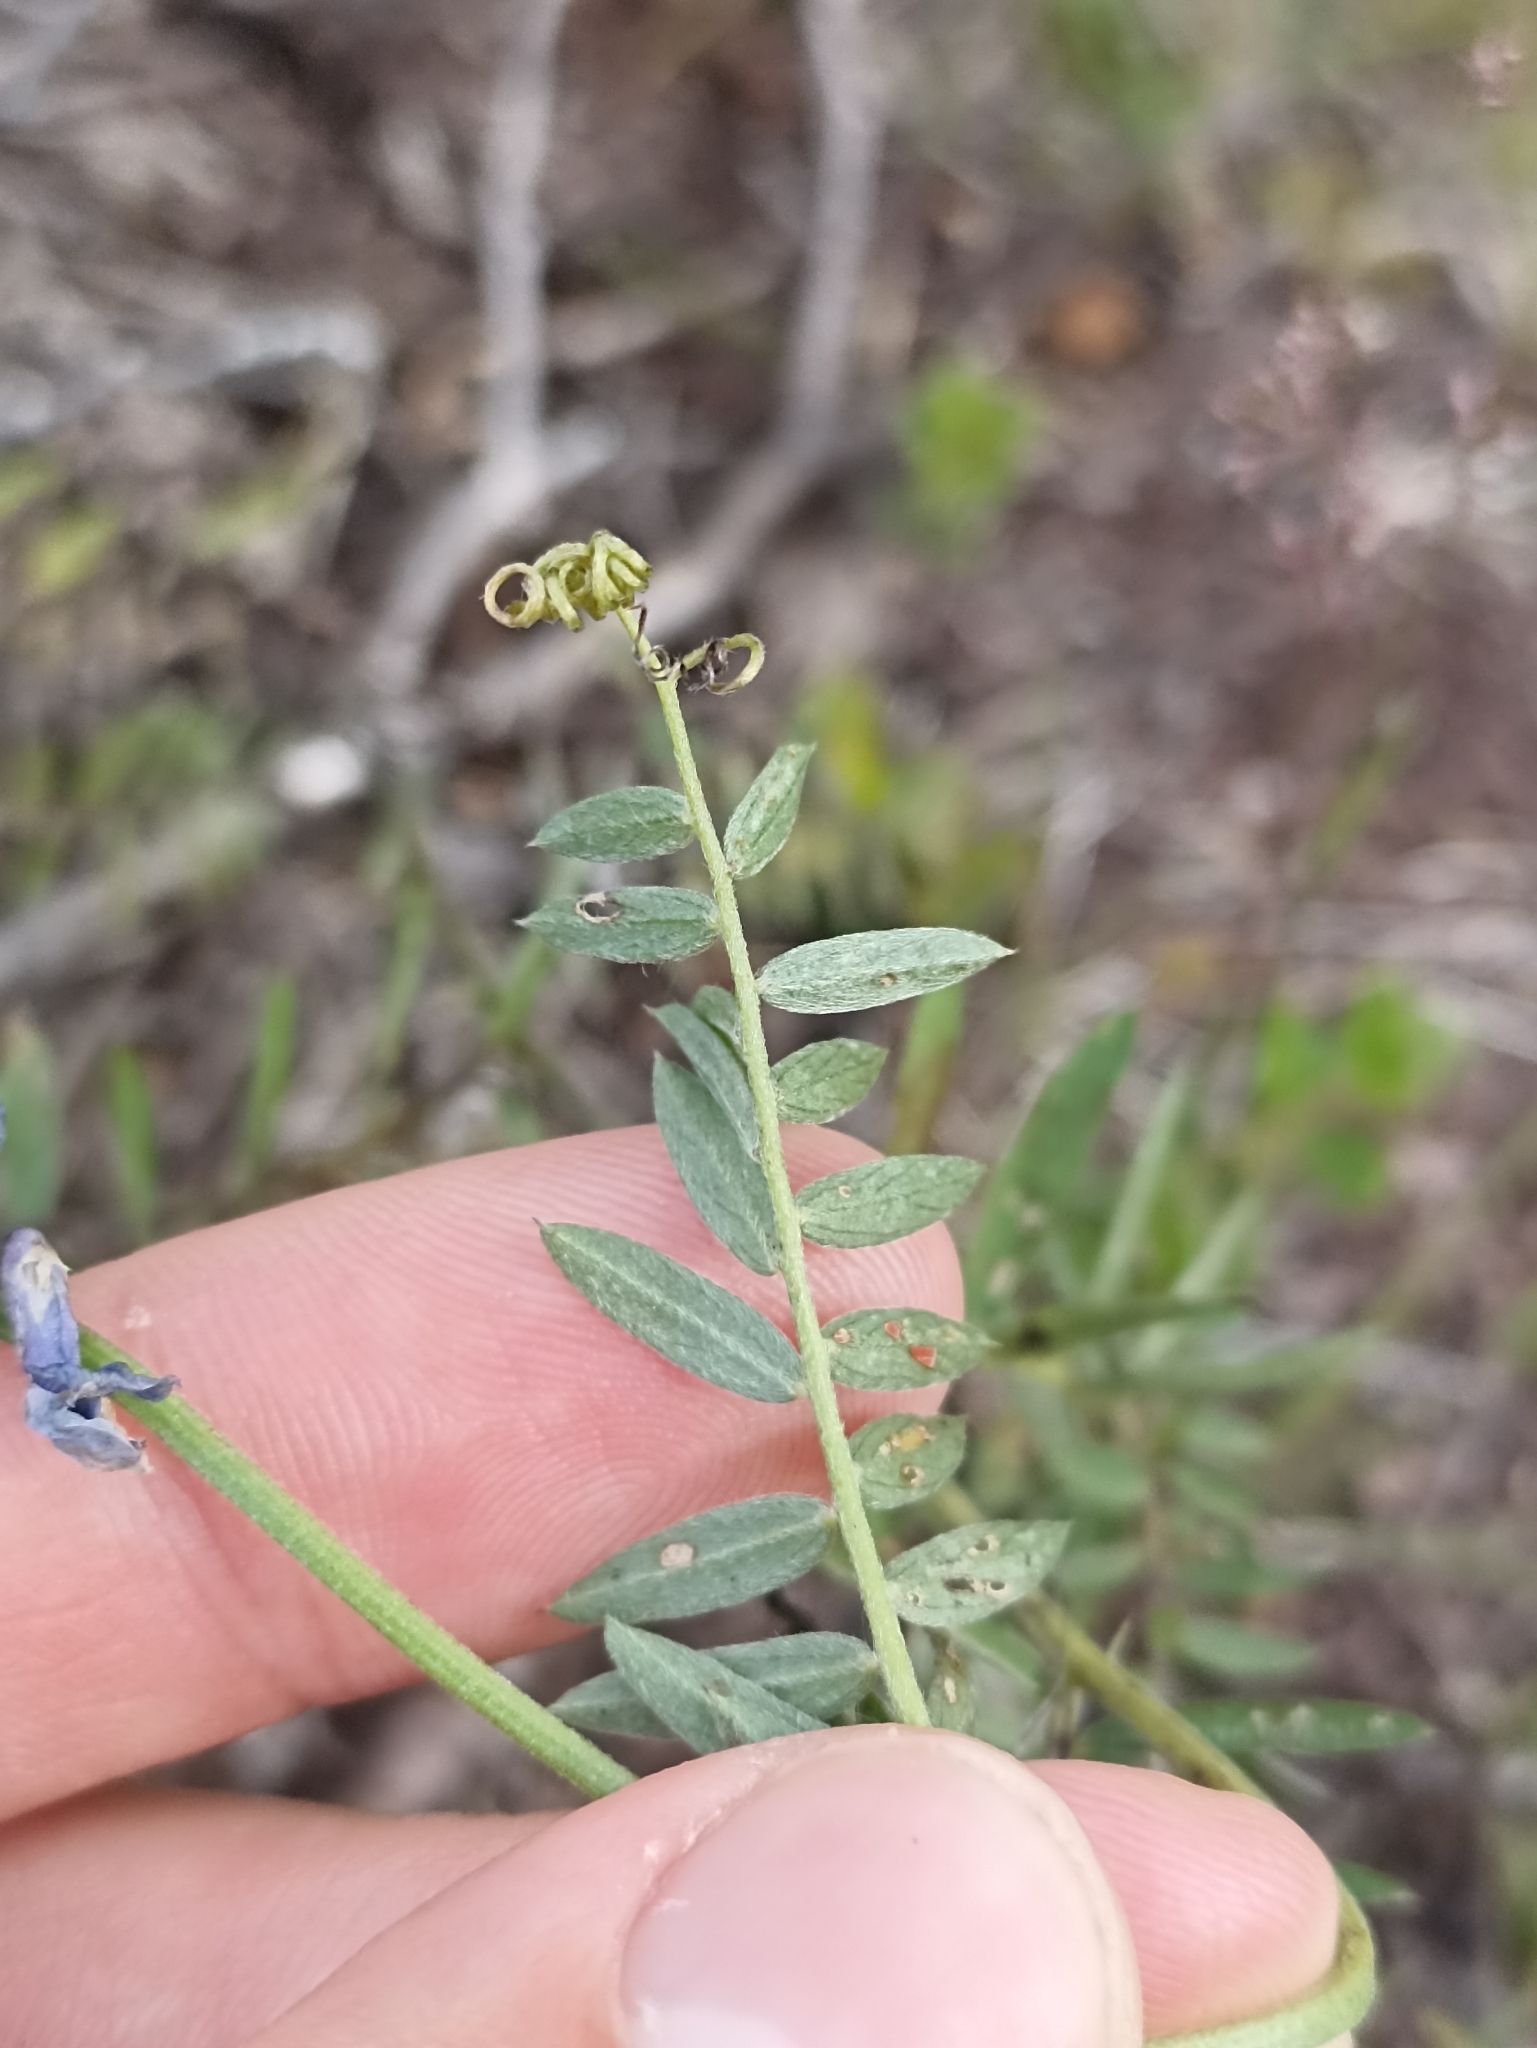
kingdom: Plantae
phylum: Tracheophyta
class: Magnoliopsida
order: Fabales
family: Fabaceae
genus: Vicia
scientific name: Vicia cracca
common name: Bird vetch
